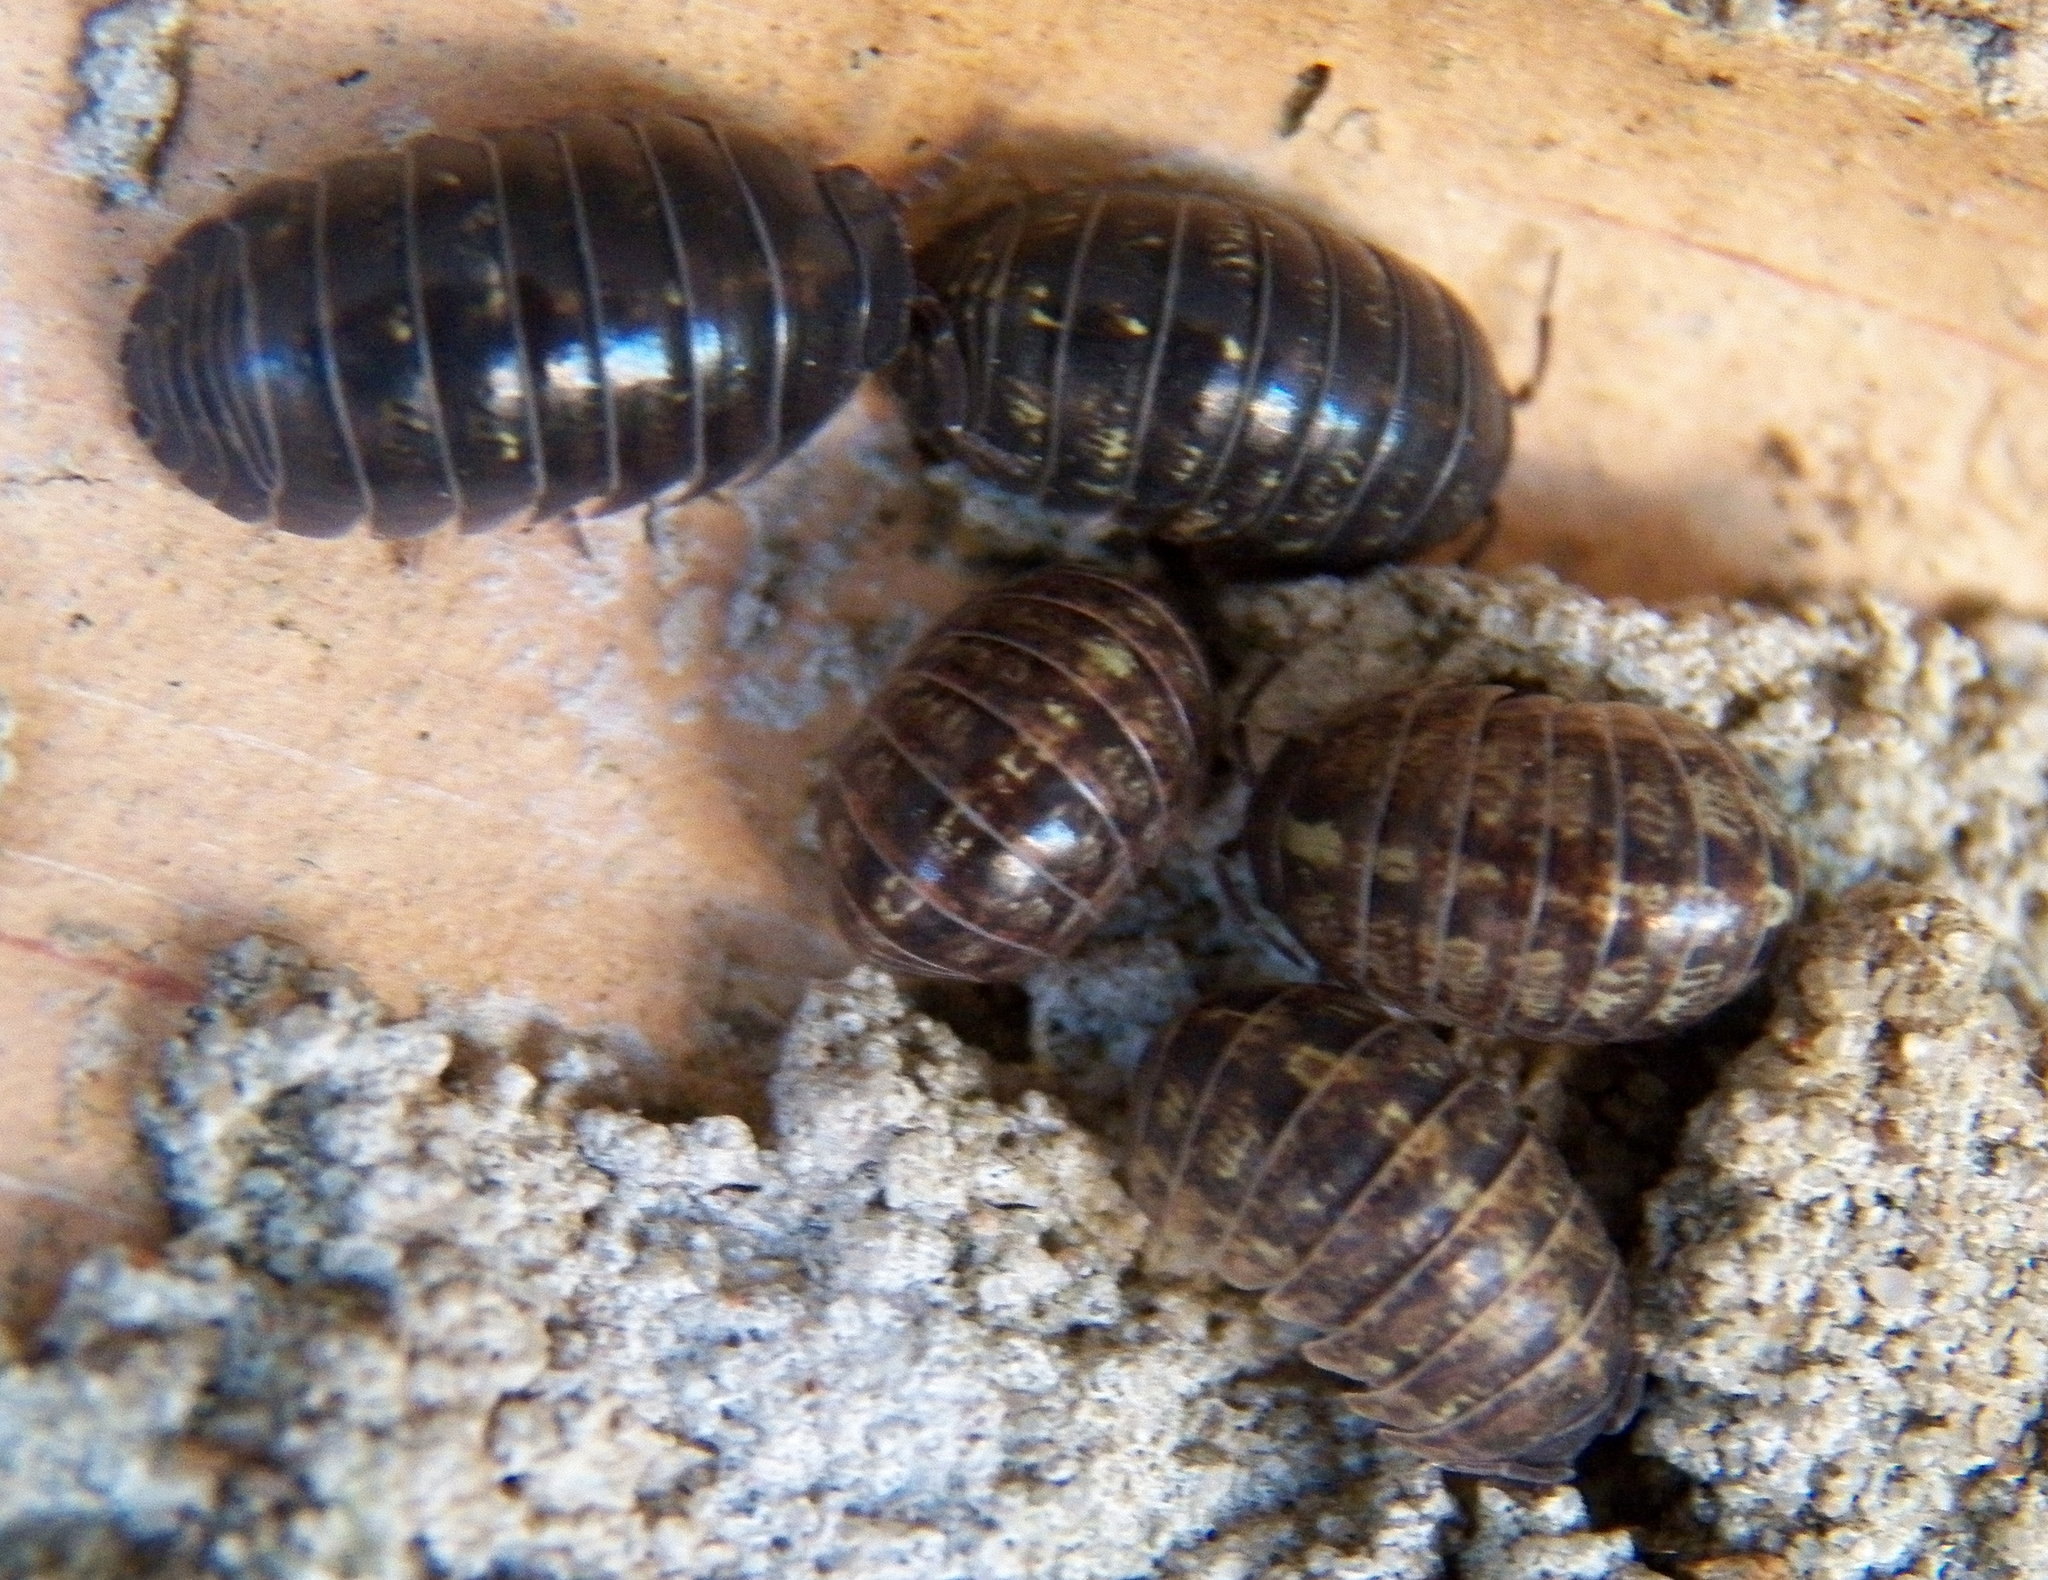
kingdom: Animalia
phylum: Arthropoda
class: Malacostraca
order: Isopoda
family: Armadillidiidae
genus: Armadillidium
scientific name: Armadillidium vulgare
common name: Common pill woodlouse
